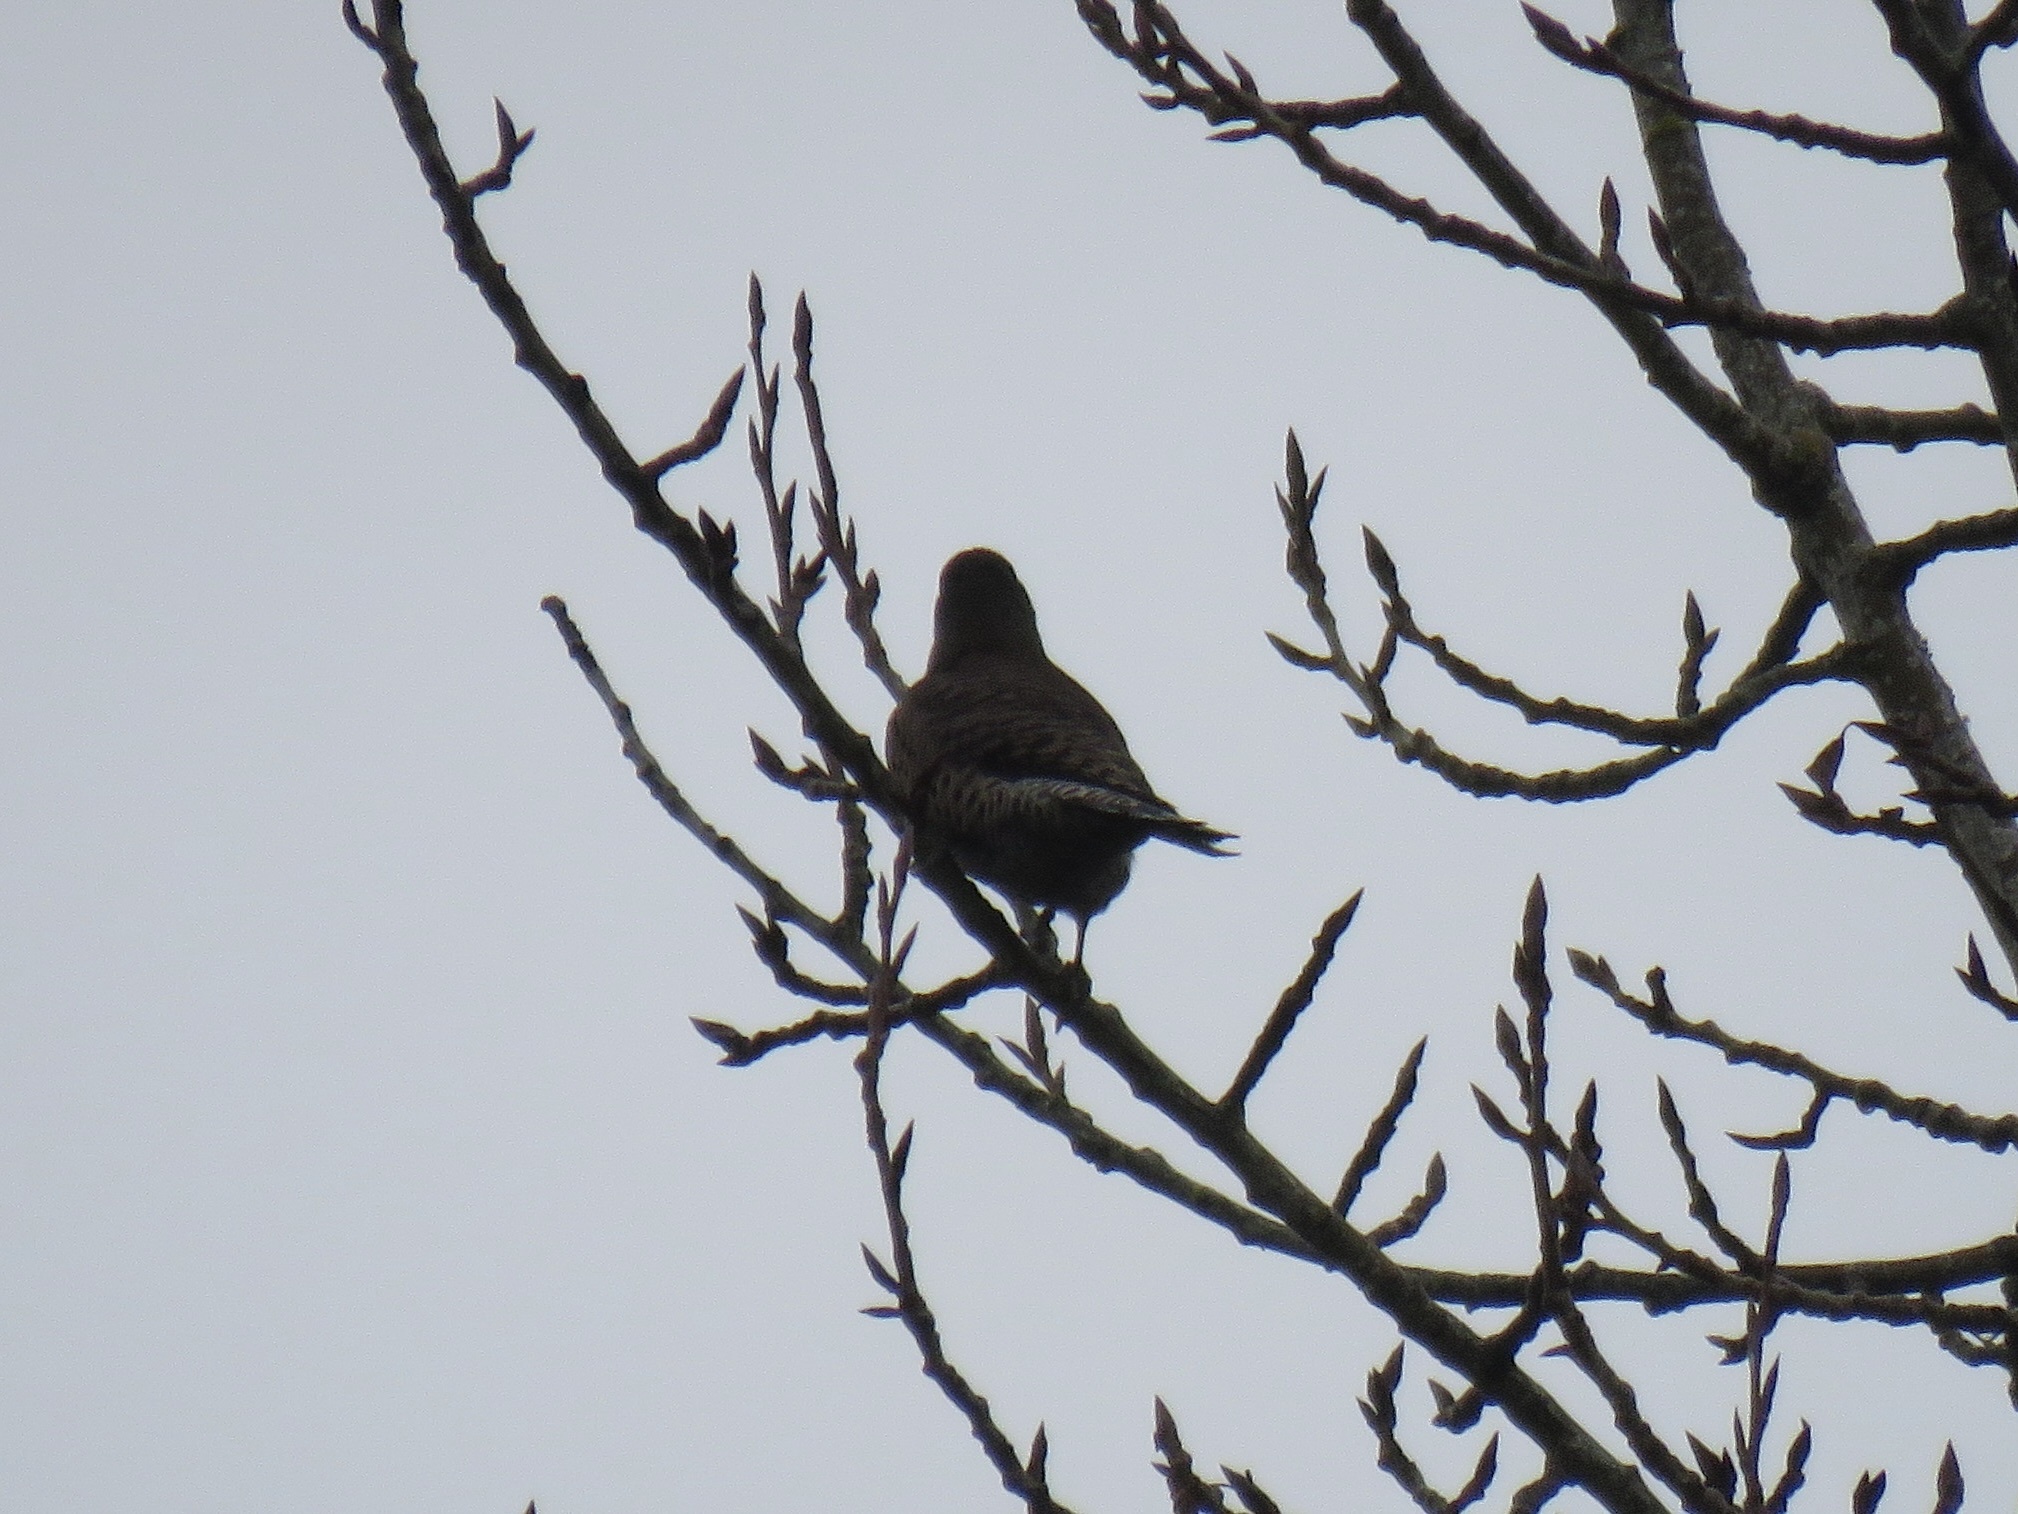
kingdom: Animalia
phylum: Chordata
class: Aves
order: Piciformes
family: Picidae
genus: Colaptes
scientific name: Colaptes auratus
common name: Northern flicker
